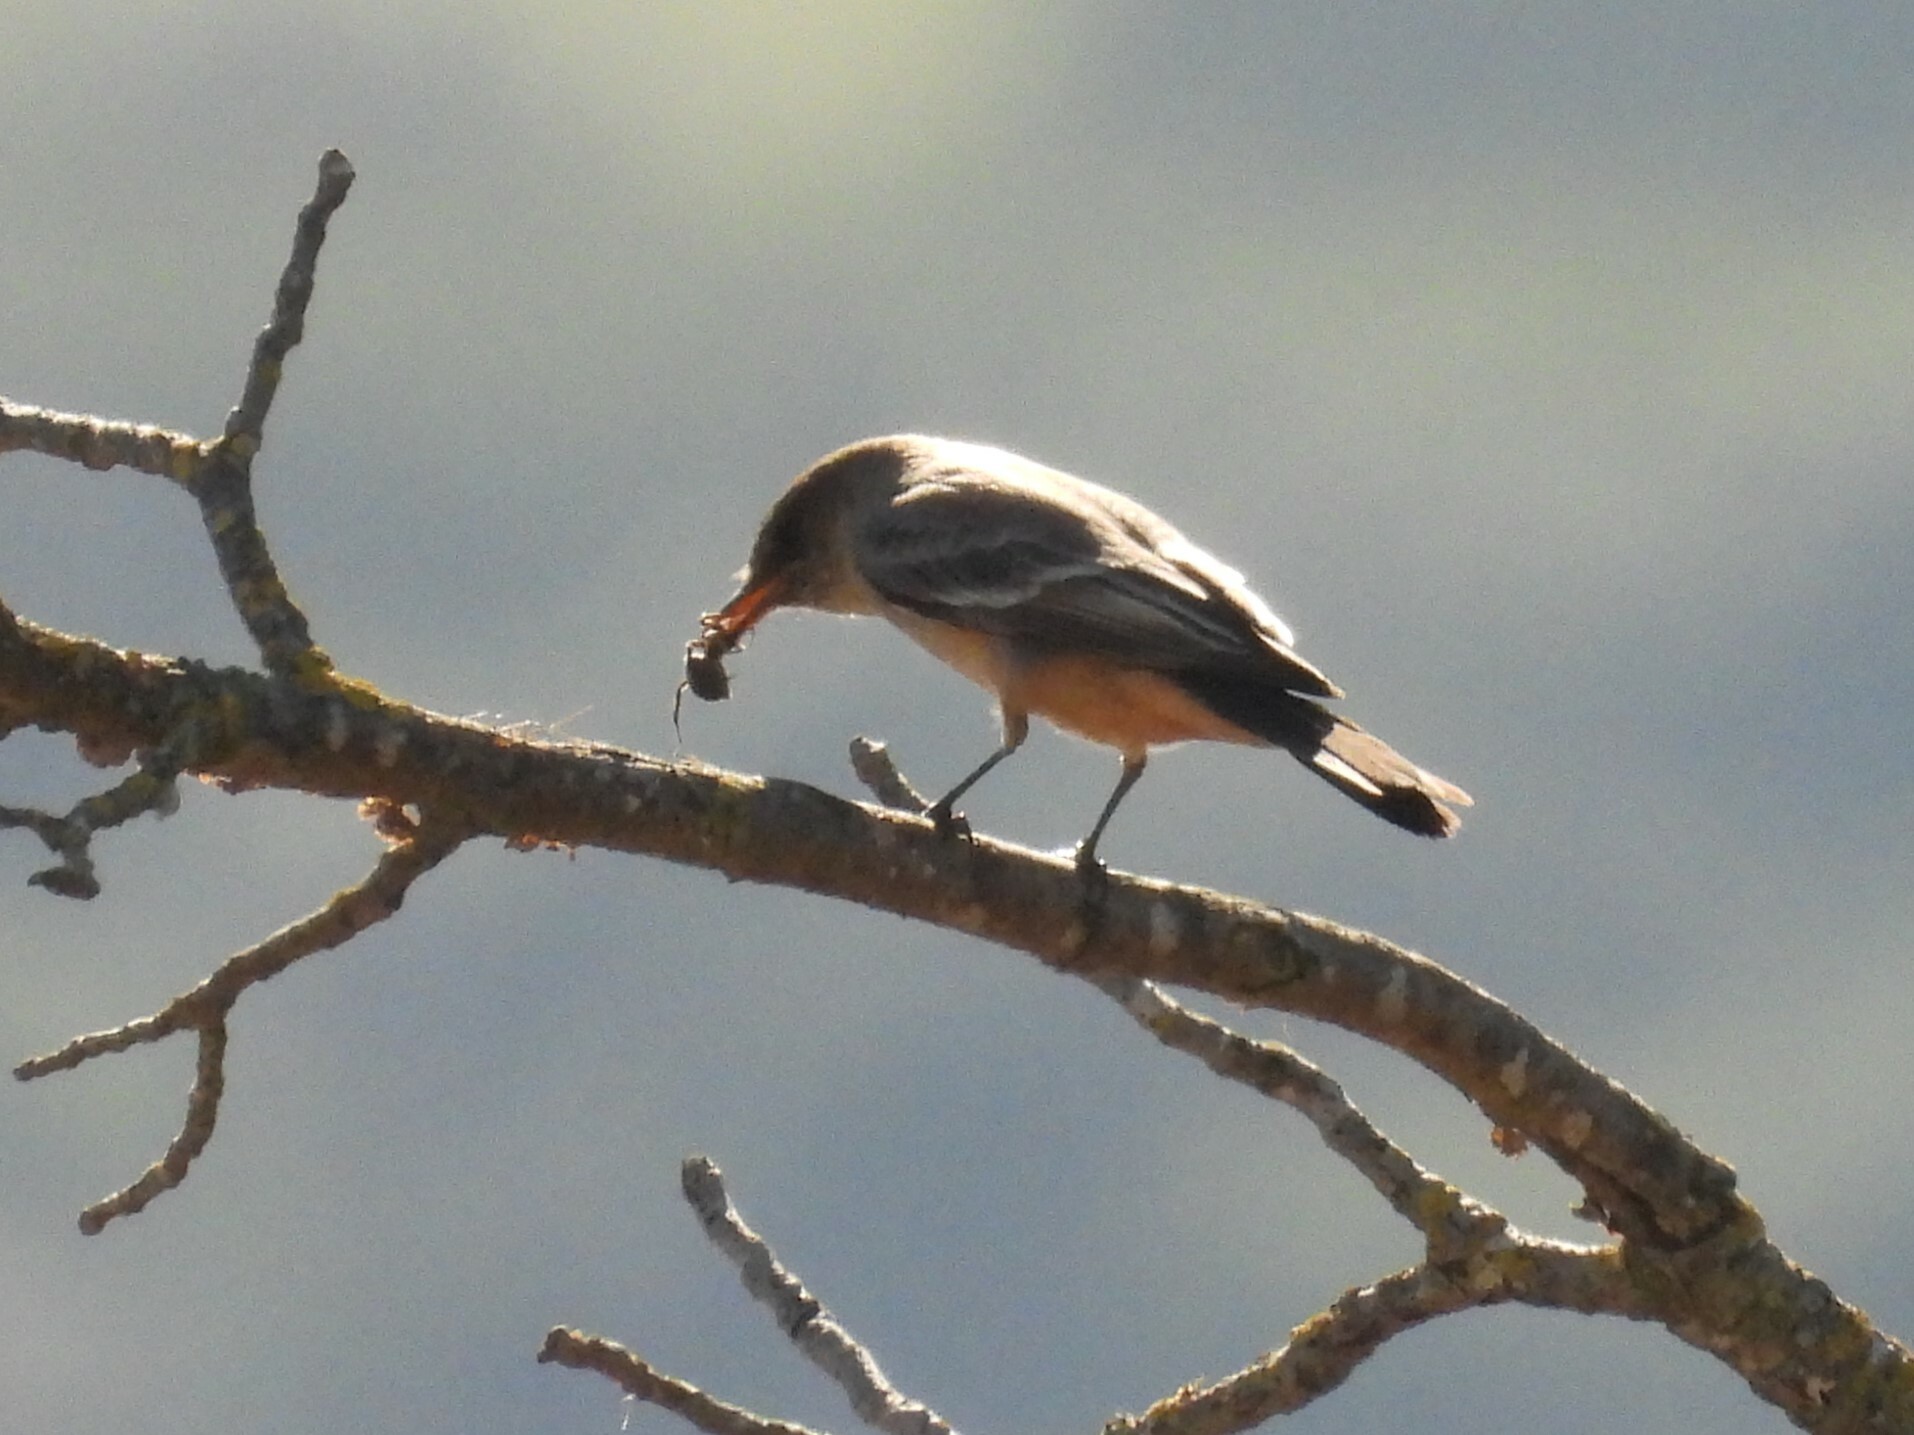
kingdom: Animalia
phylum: Chordata
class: Aves
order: Passeriformes
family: Tyrannidae
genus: Sayornis
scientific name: Sayornis saya
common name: Say's phoebe
